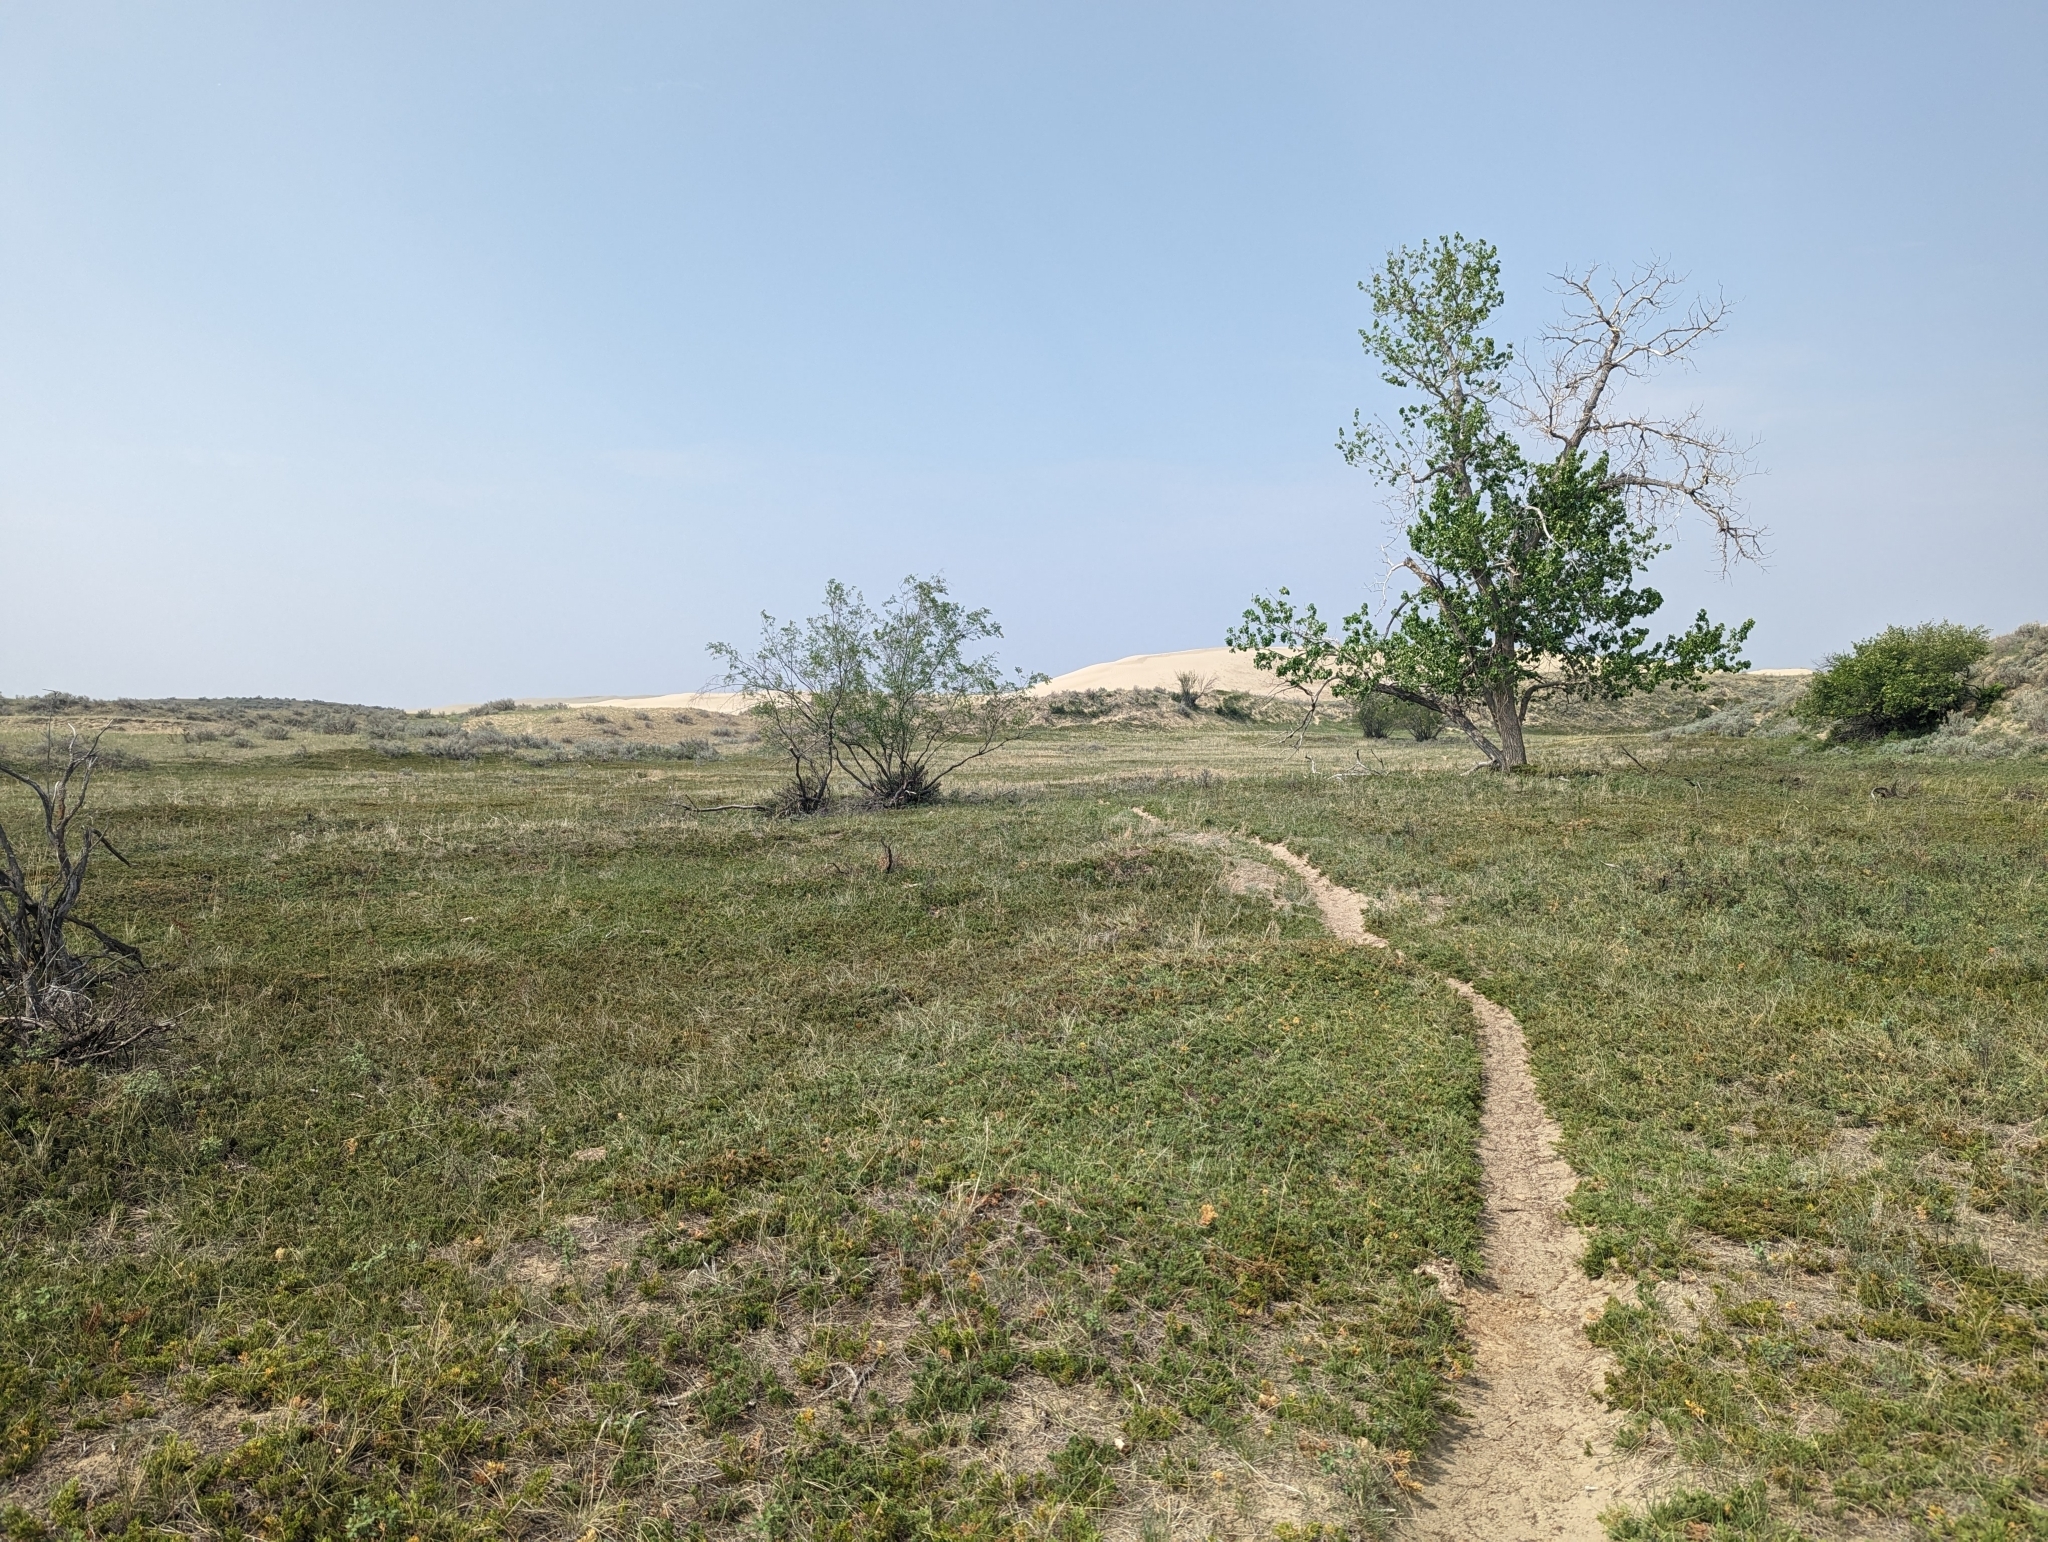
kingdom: Plantae
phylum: Tracheophyta
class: Pinopsida
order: Pinales
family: Cupressaceae
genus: Juniperus
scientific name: Juniperus horizontalis
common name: Creeping juniper
